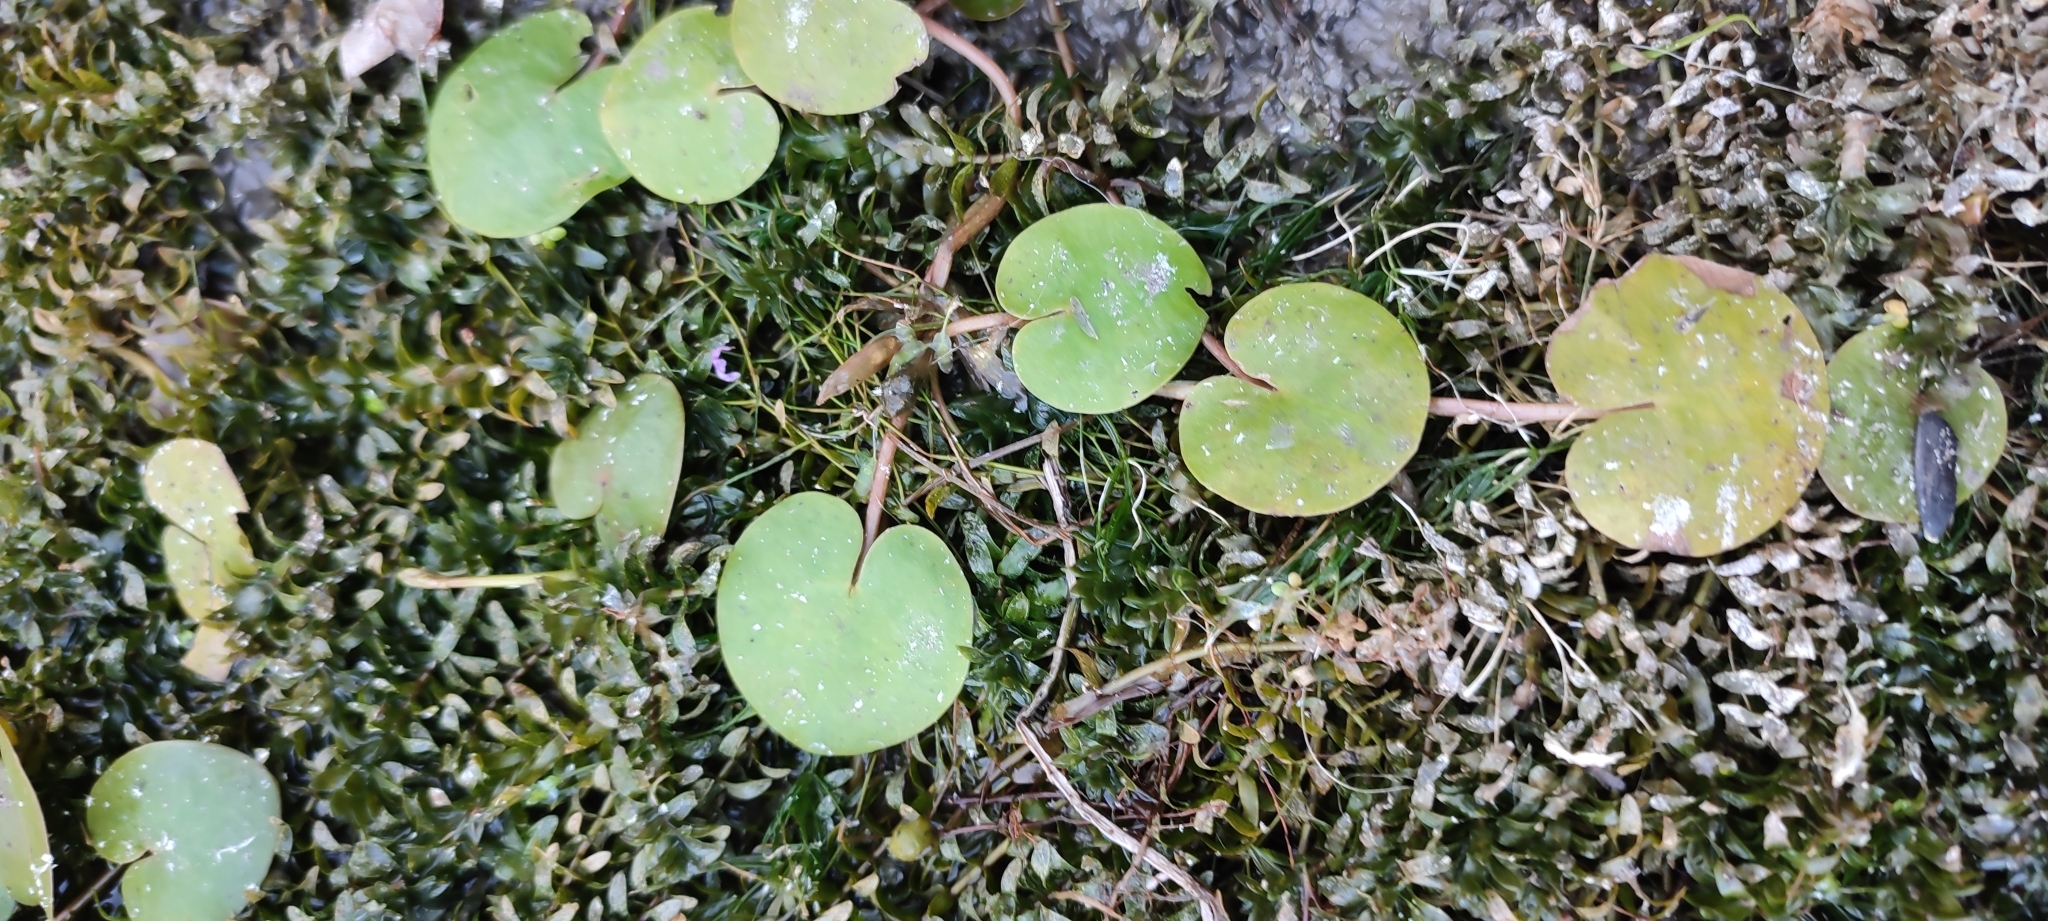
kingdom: Plantae
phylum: Tracheophyta
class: Liliopsida
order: Alismatales
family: Hydrocharitaceae
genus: Hydrocharis
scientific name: Hydrocharis morsus-ranae
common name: Frogbit
